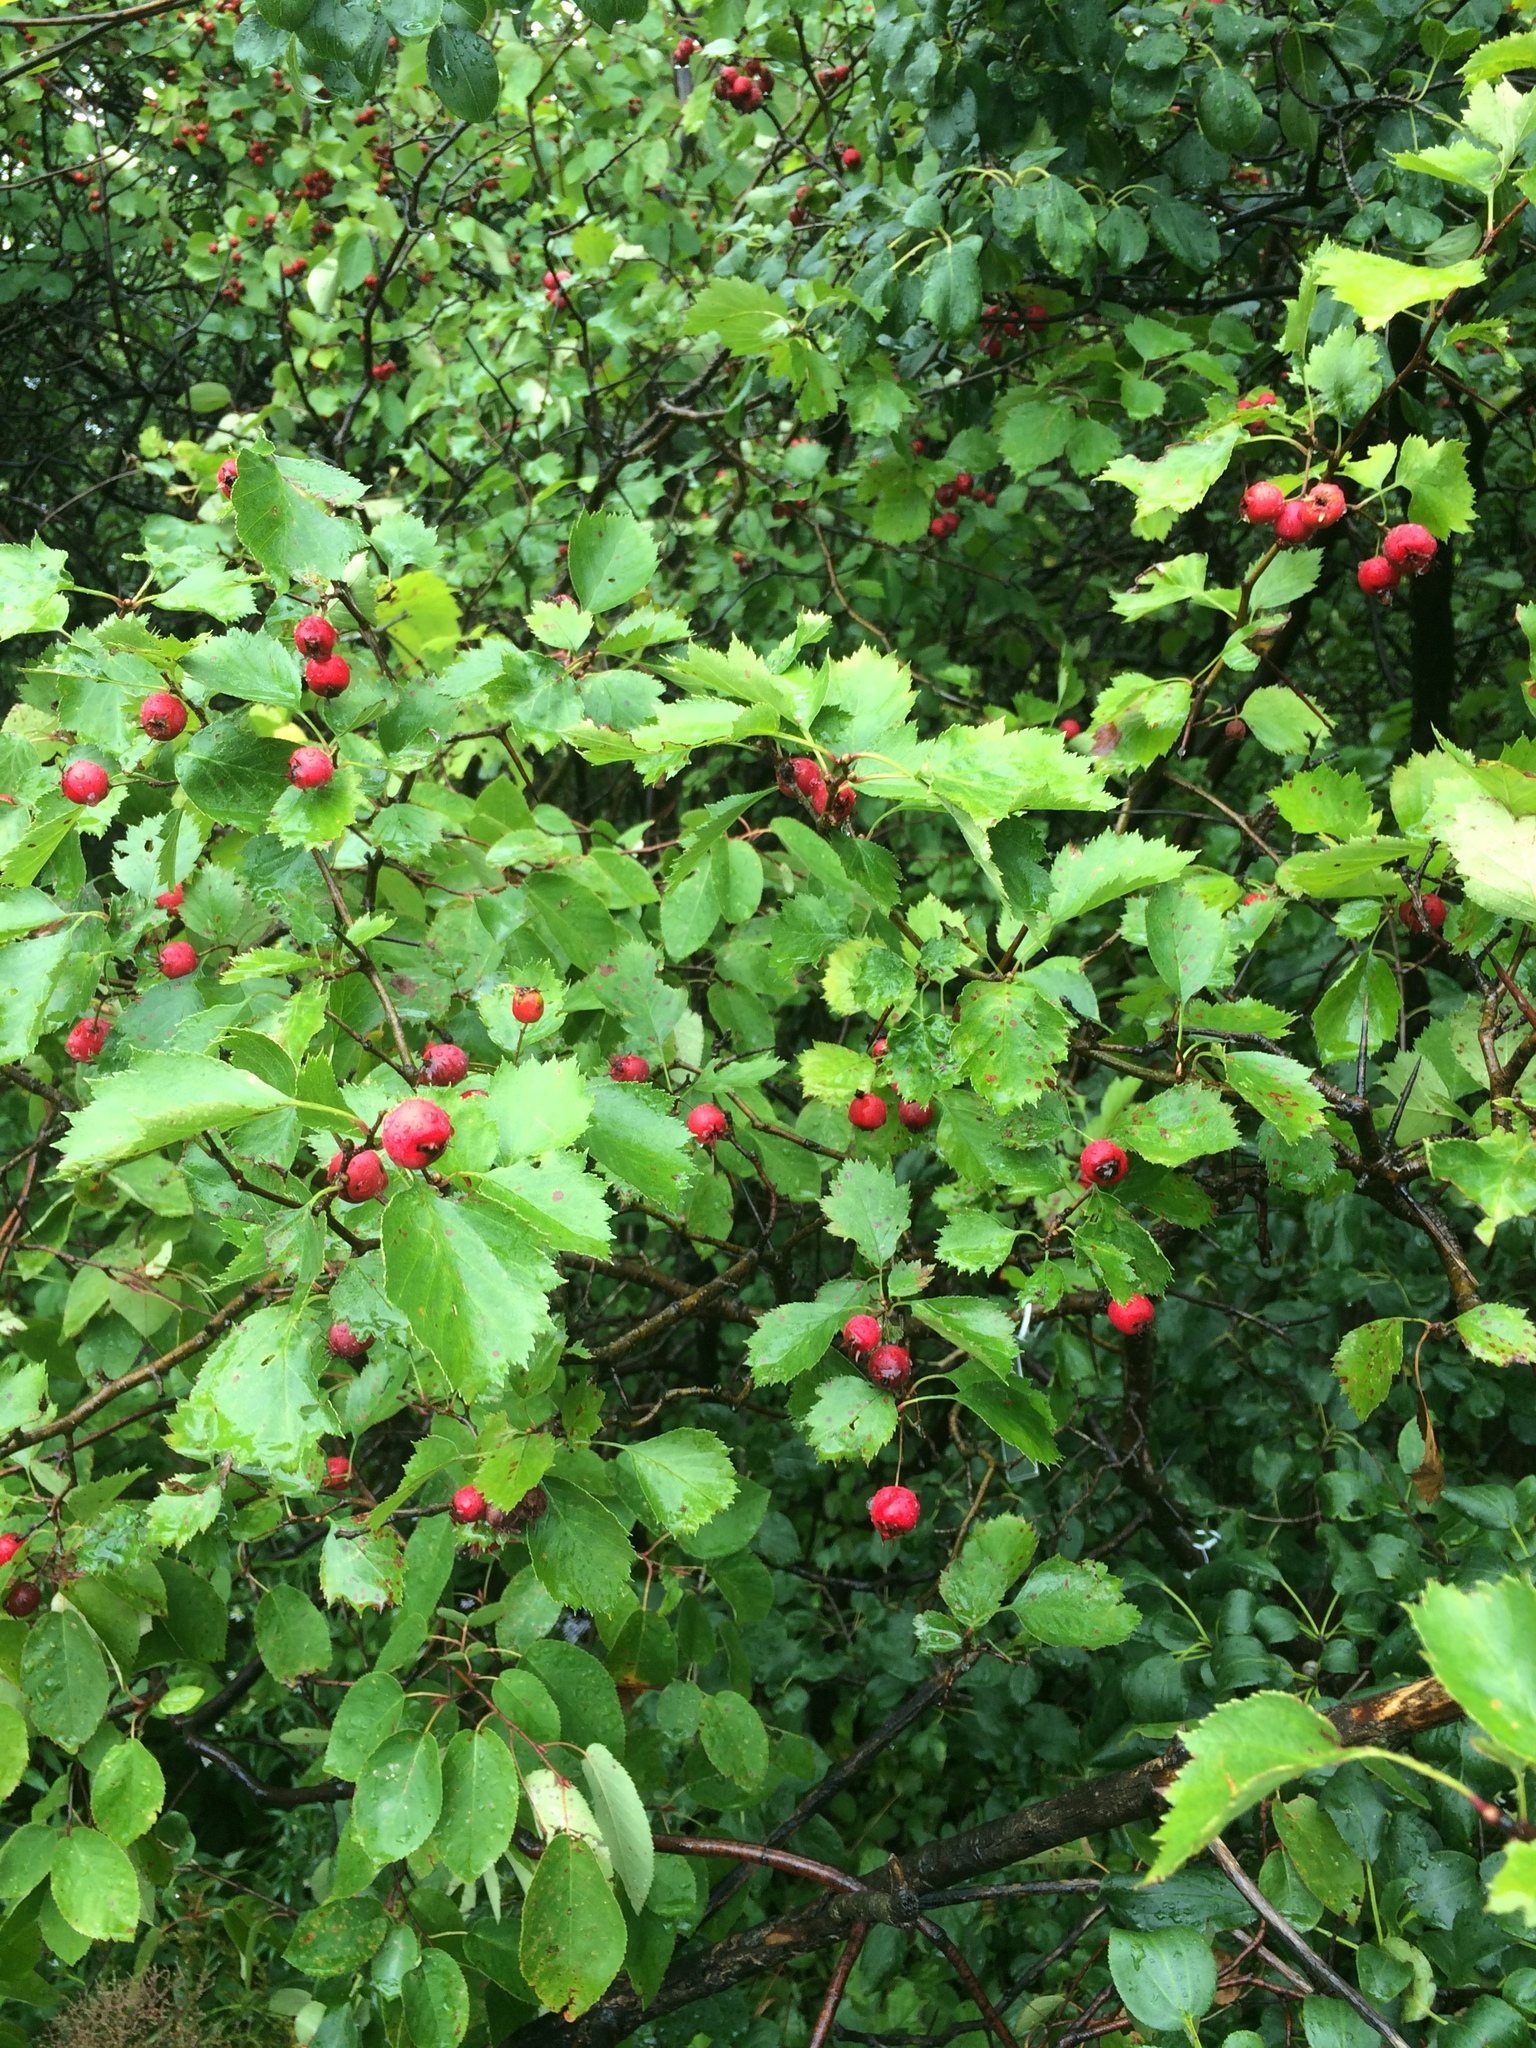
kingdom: Plantae
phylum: Tracheophyta
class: Magnoliopsida
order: Rosales
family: Rosaceae
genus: Crataegus
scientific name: Crataegus flabellata
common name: Bosc's hawthorn
